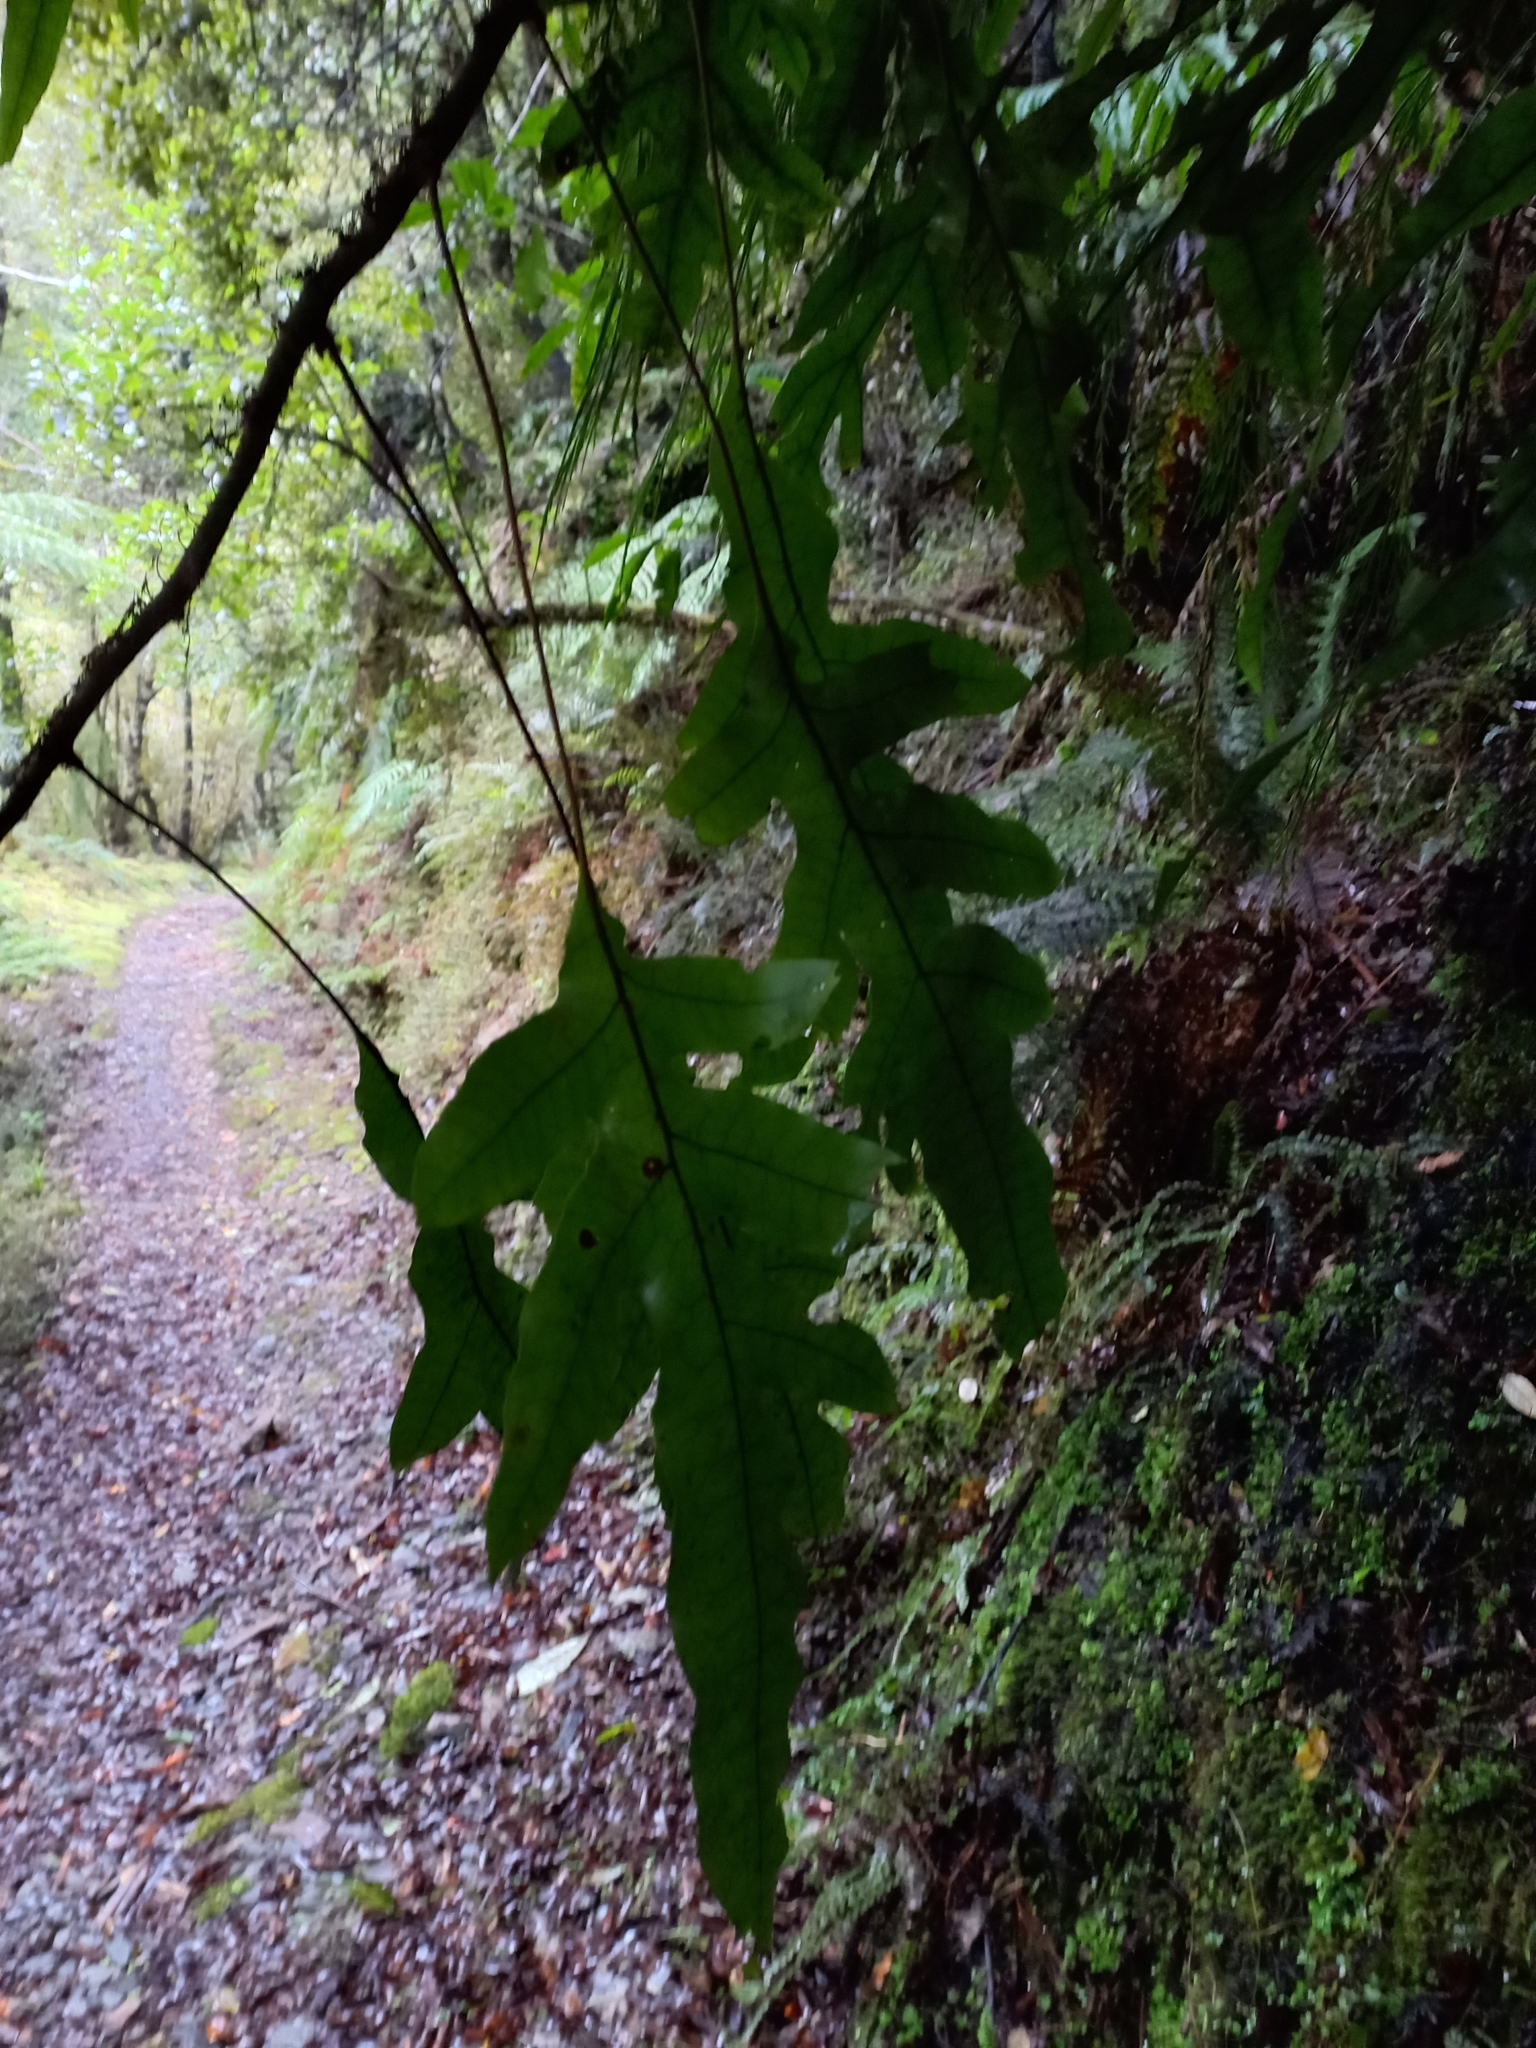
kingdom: Plantae
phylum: Tracheophyta
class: Polypodiopsida
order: Polypodiales
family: Polypodiaceae
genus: Lecanopteris
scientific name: Lecanopteris pustulata
